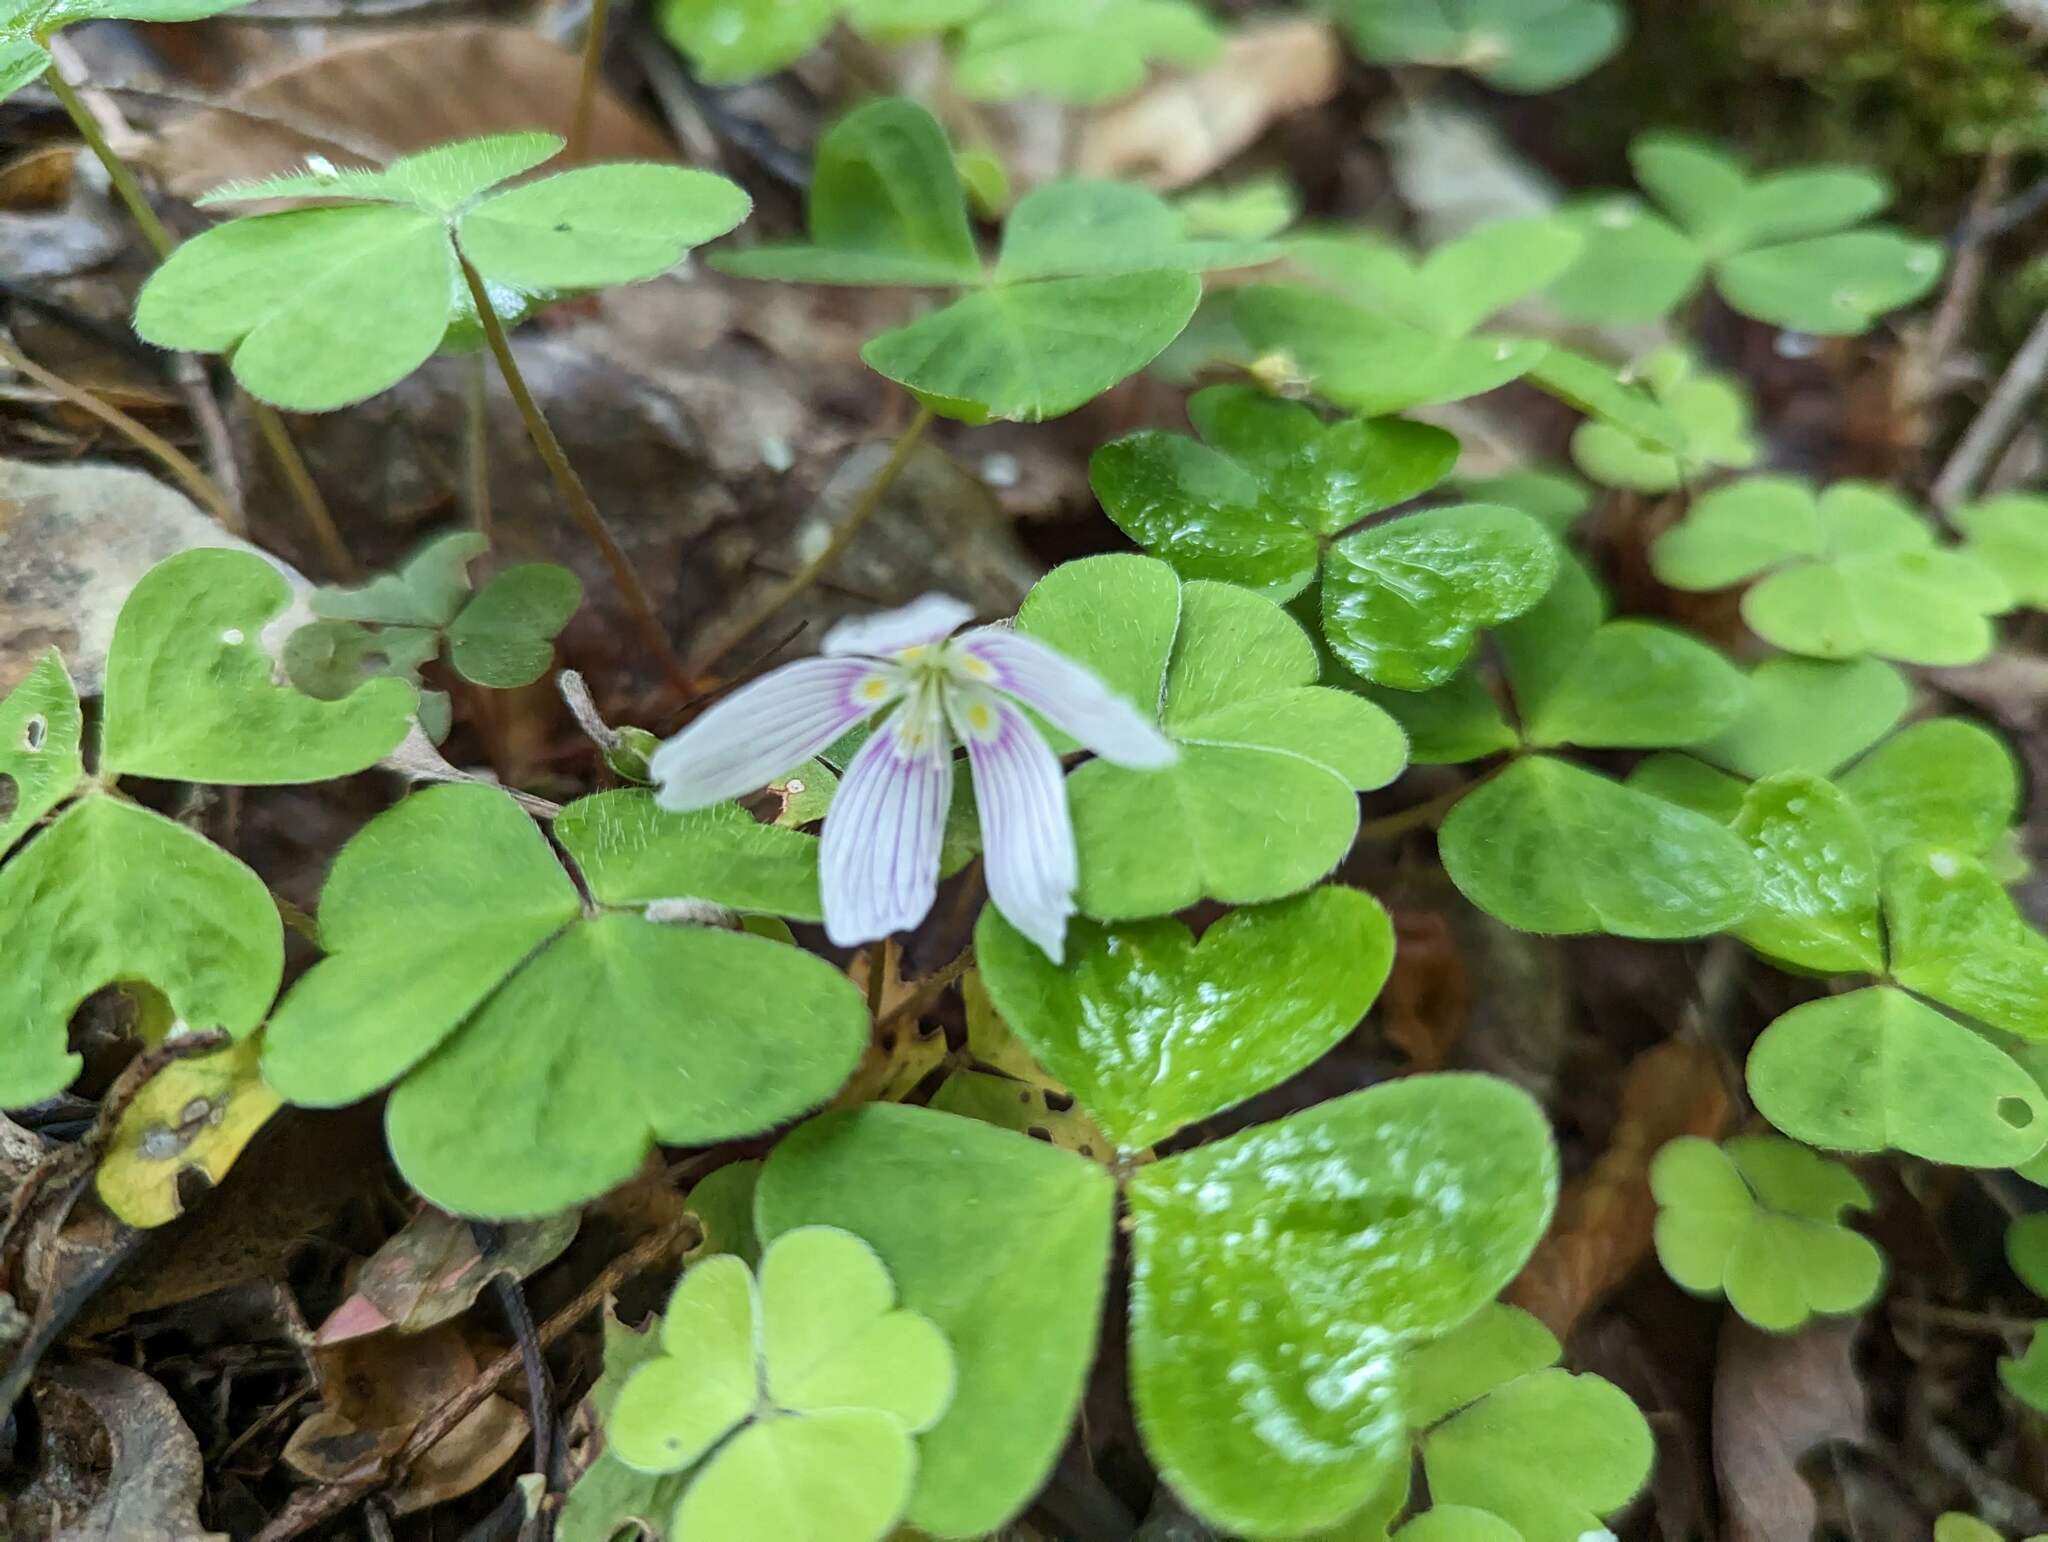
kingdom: Plantae
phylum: Tracheophyta
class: Magnoliopsida
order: Oxalidales
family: Oxalidaceae
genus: Oxalis
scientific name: Oxalis montana
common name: American wood-sorrel
